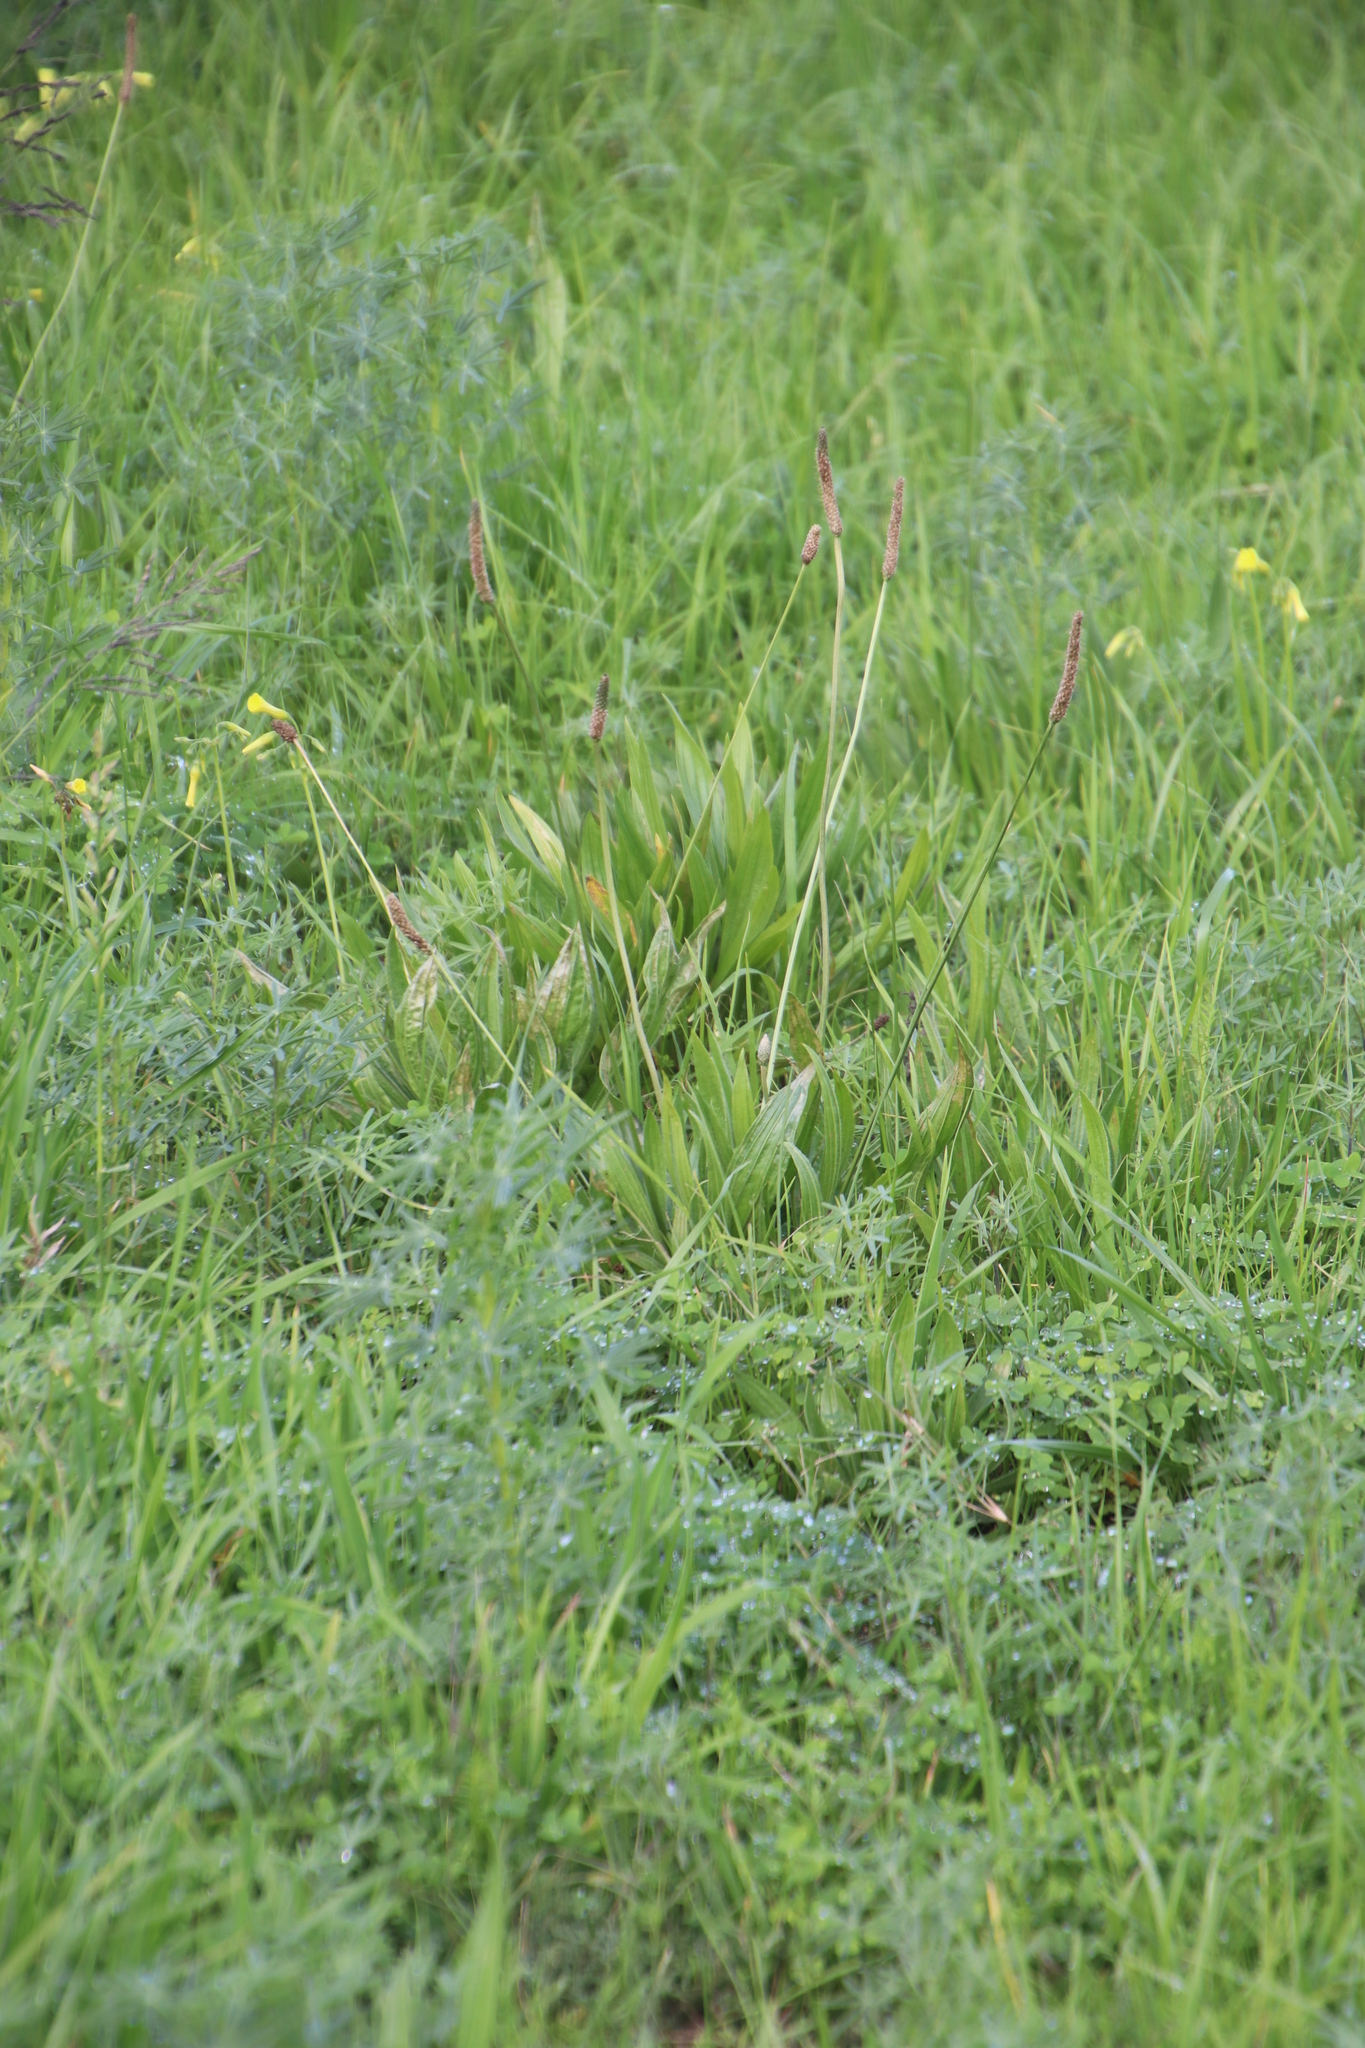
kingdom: Plantae
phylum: Tracheophyta
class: Magnoliopsida
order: Lamiales
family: Plantaginaceae
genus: Plantago
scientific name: Plantago lanceolata
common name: Ribwort plantain
